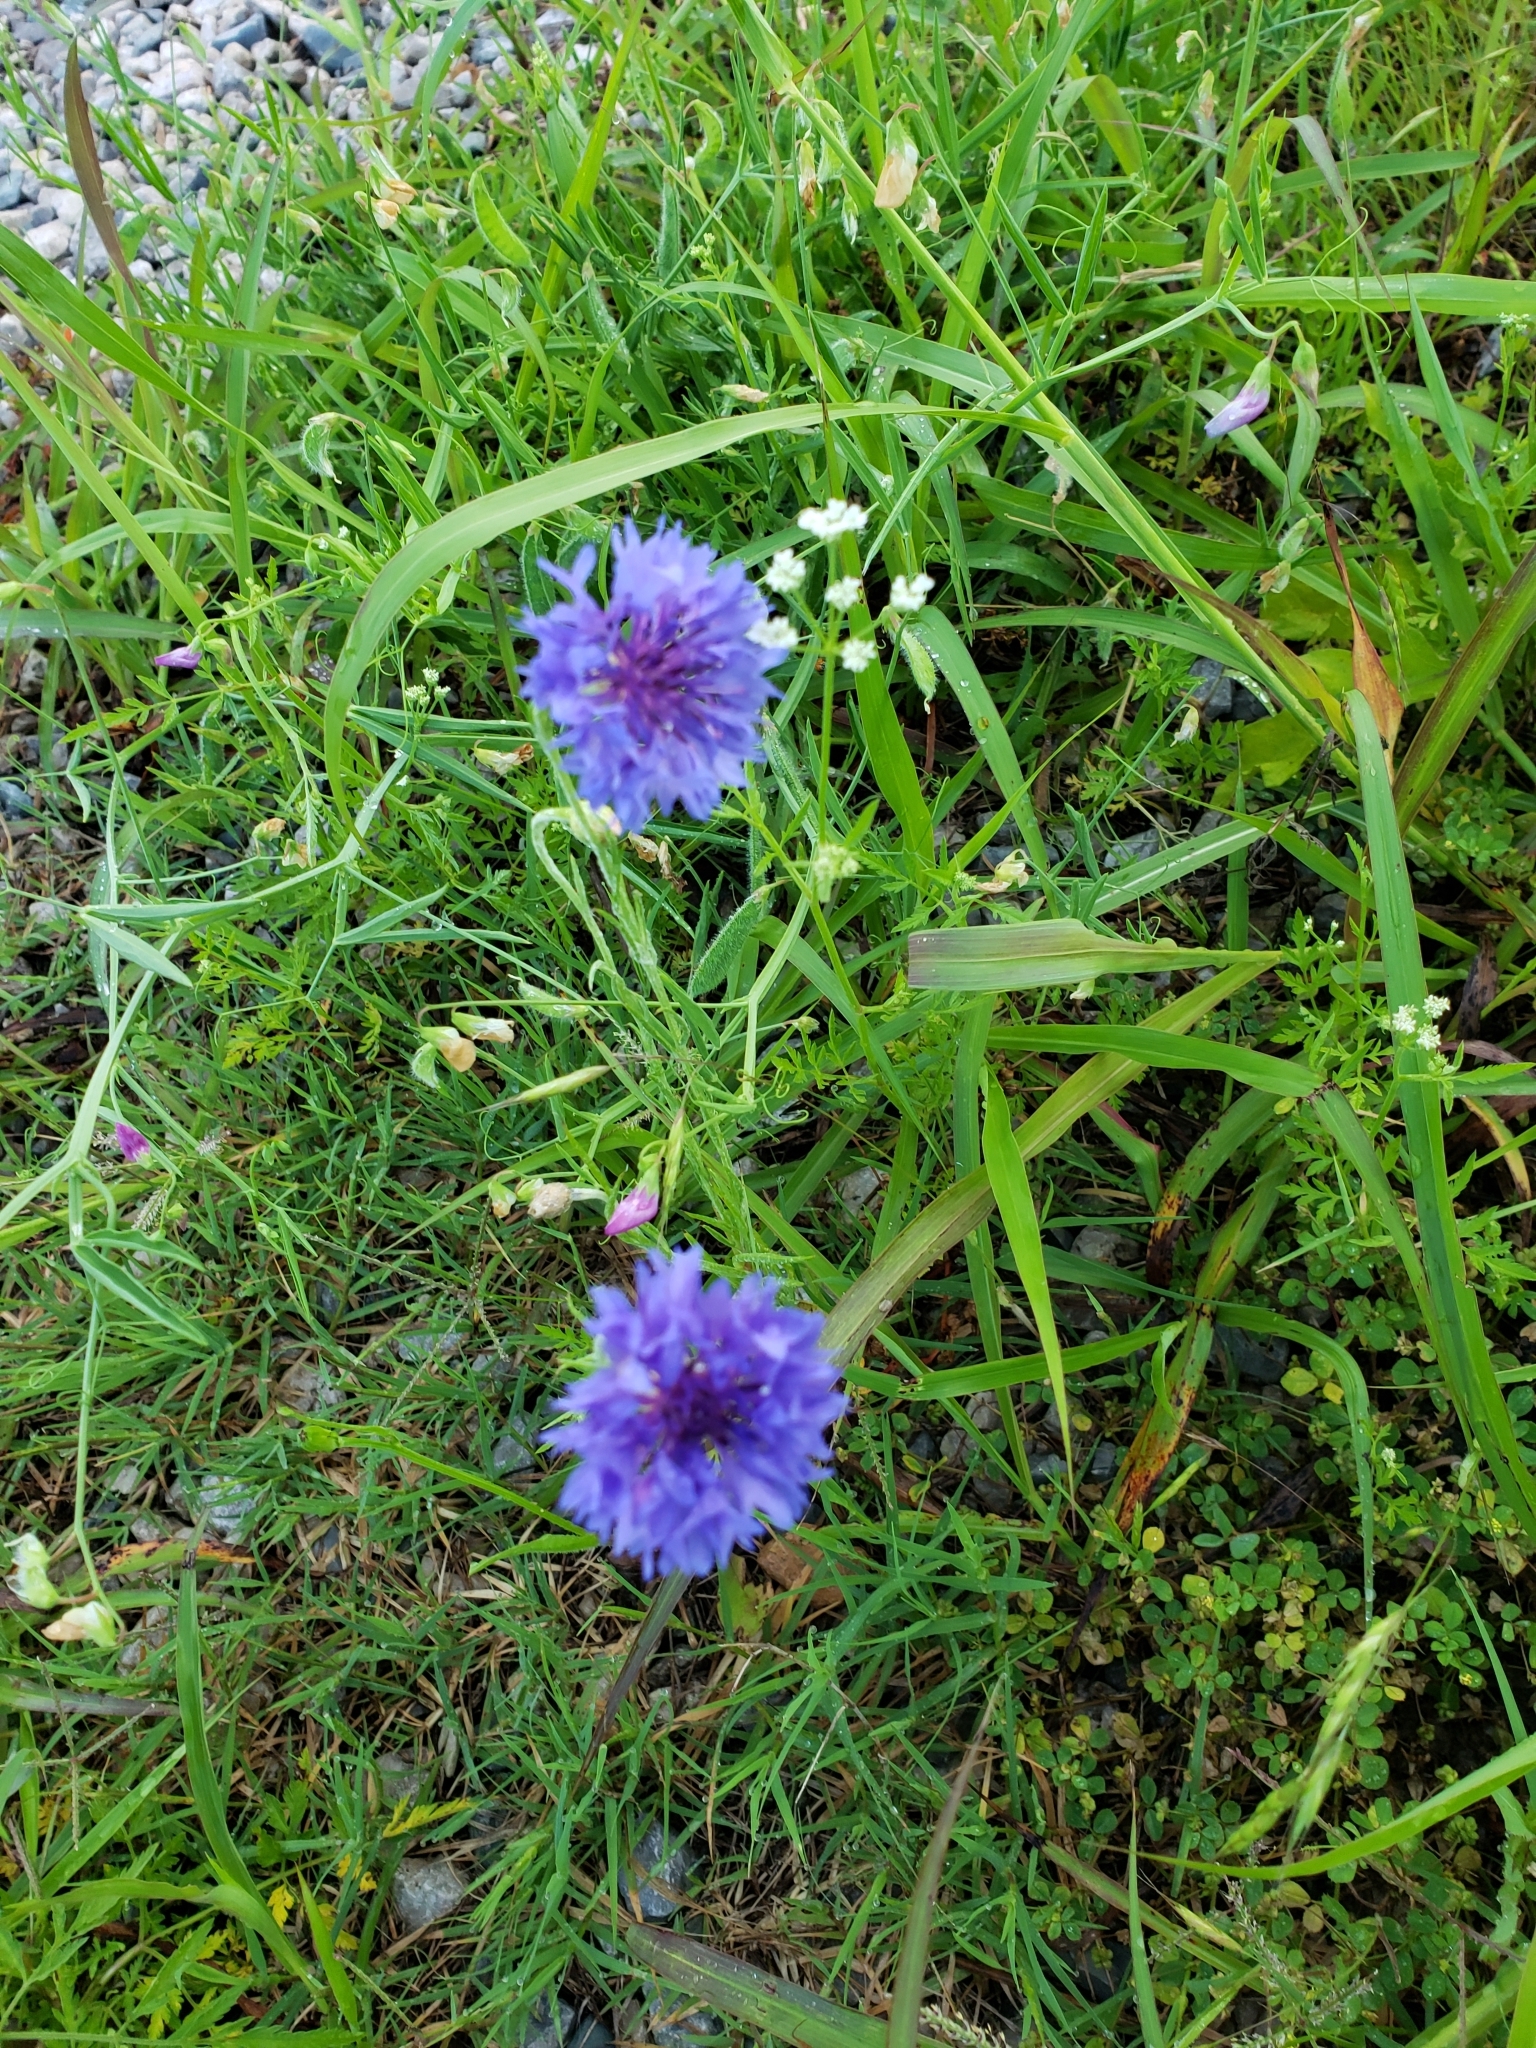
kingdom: Plantae
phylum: Tracheophyta
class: Magnoliopsida
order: Asterales
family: Asteraceae
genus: Centaurea
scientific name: Centaurea cyanus
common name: Cornflower
